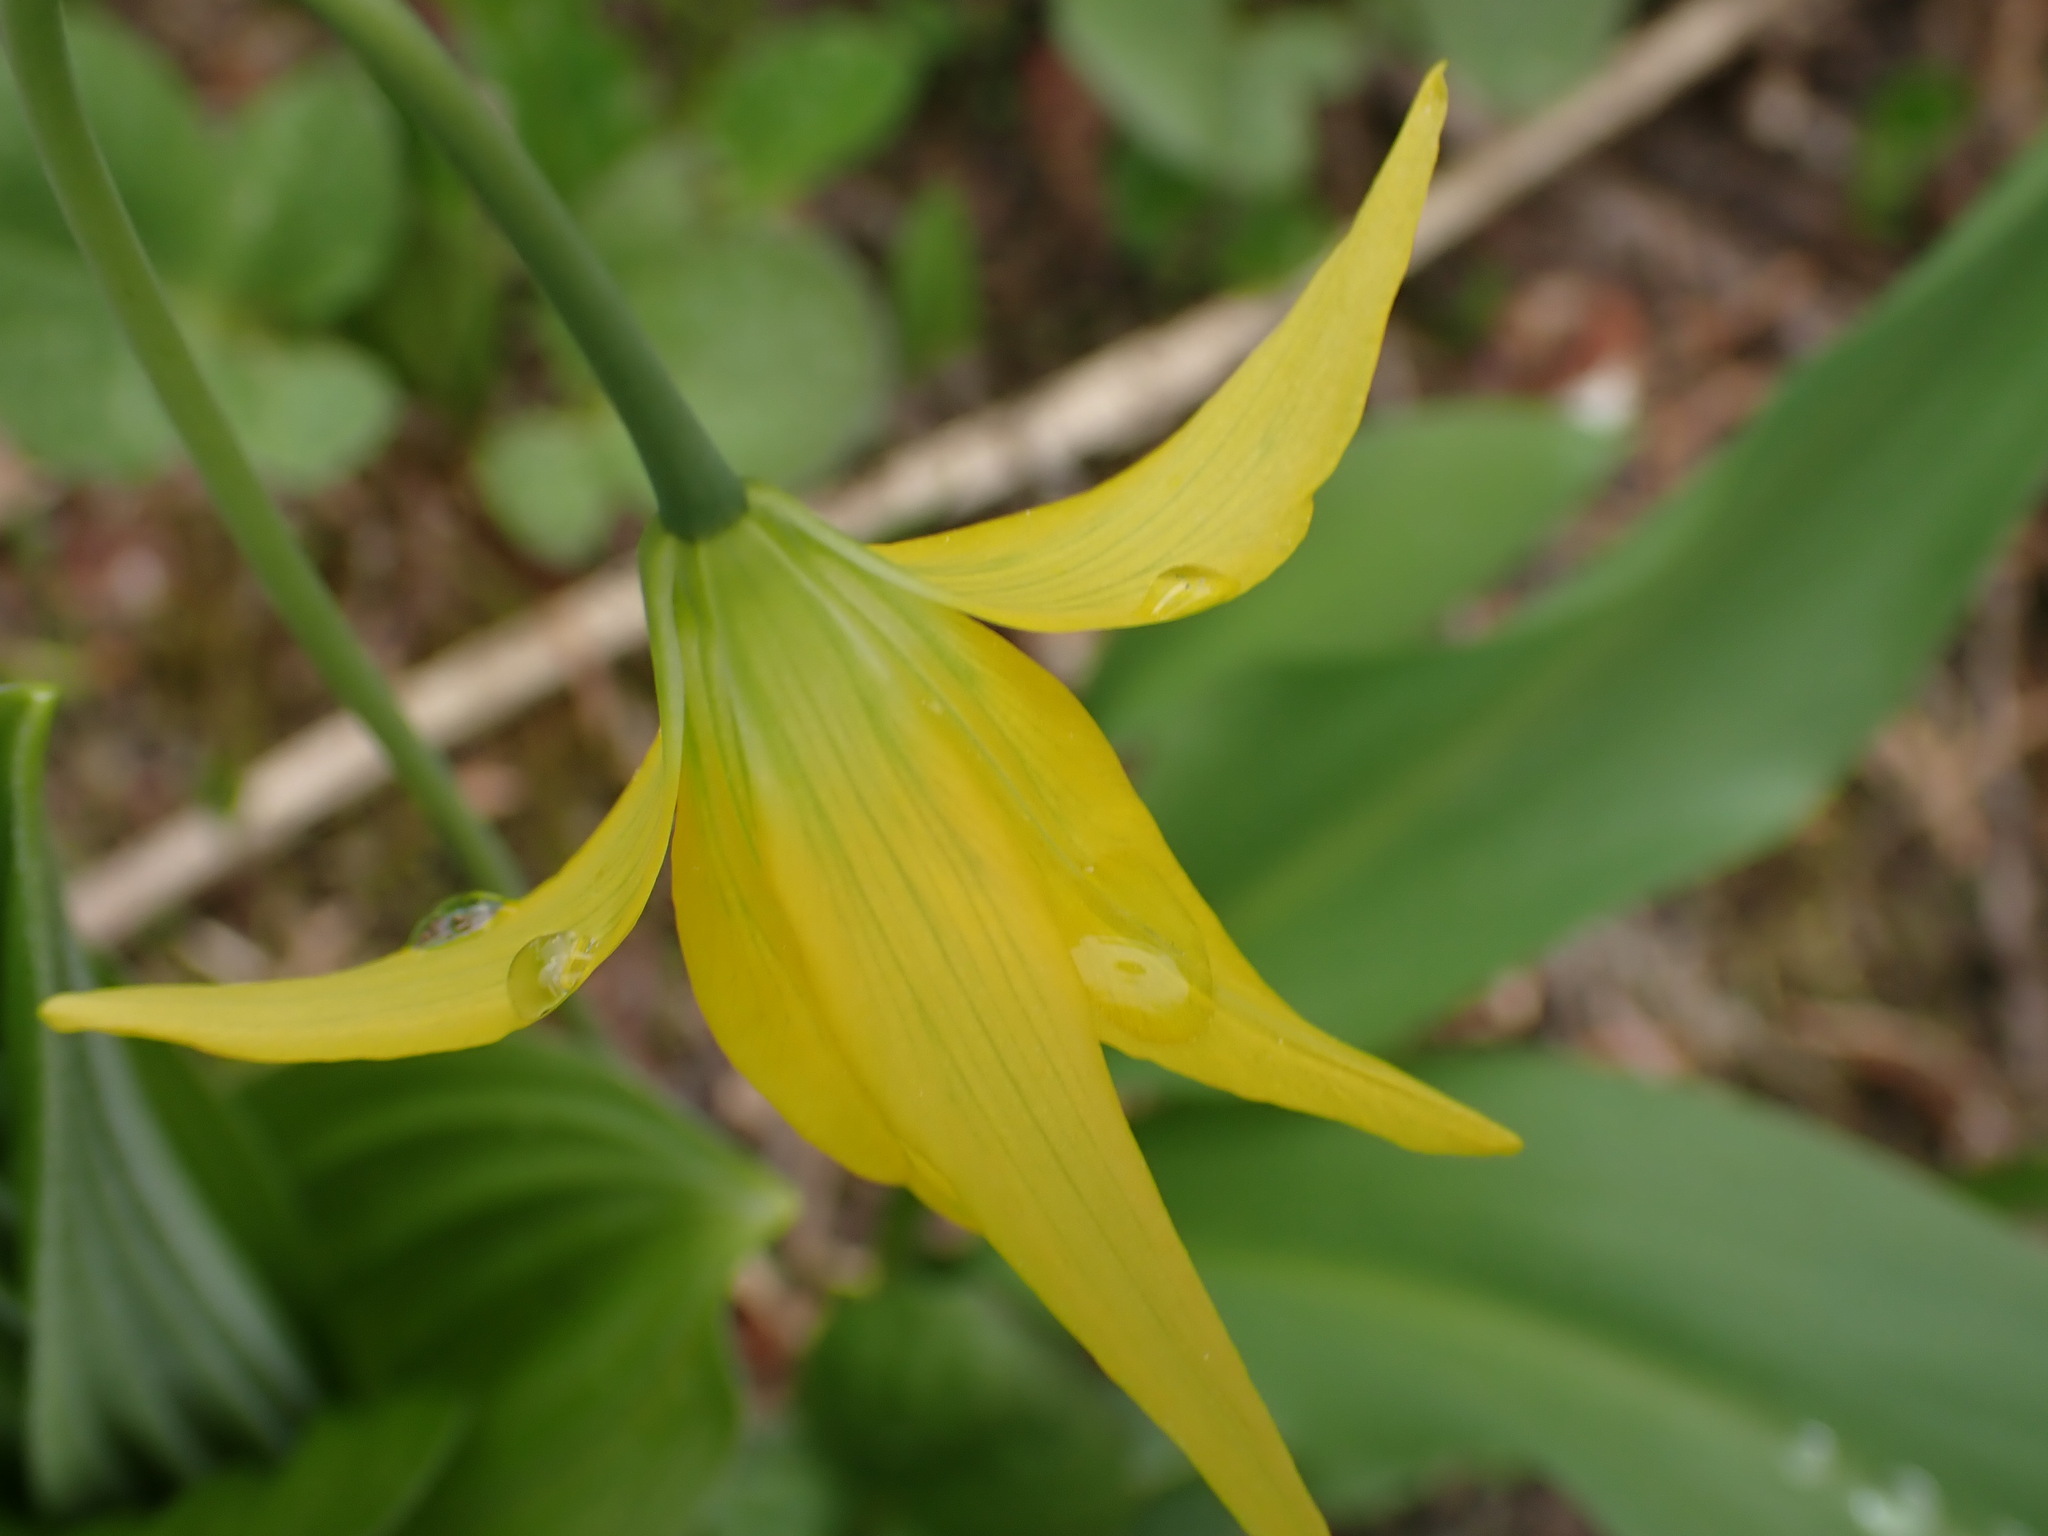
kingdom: Plantae
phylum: Tracheophyta
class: Liliopsida
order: Liliales
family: Liliaceae
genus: Erythronium
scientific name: Erythronium grandiflorum
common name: Avalanche-lily
